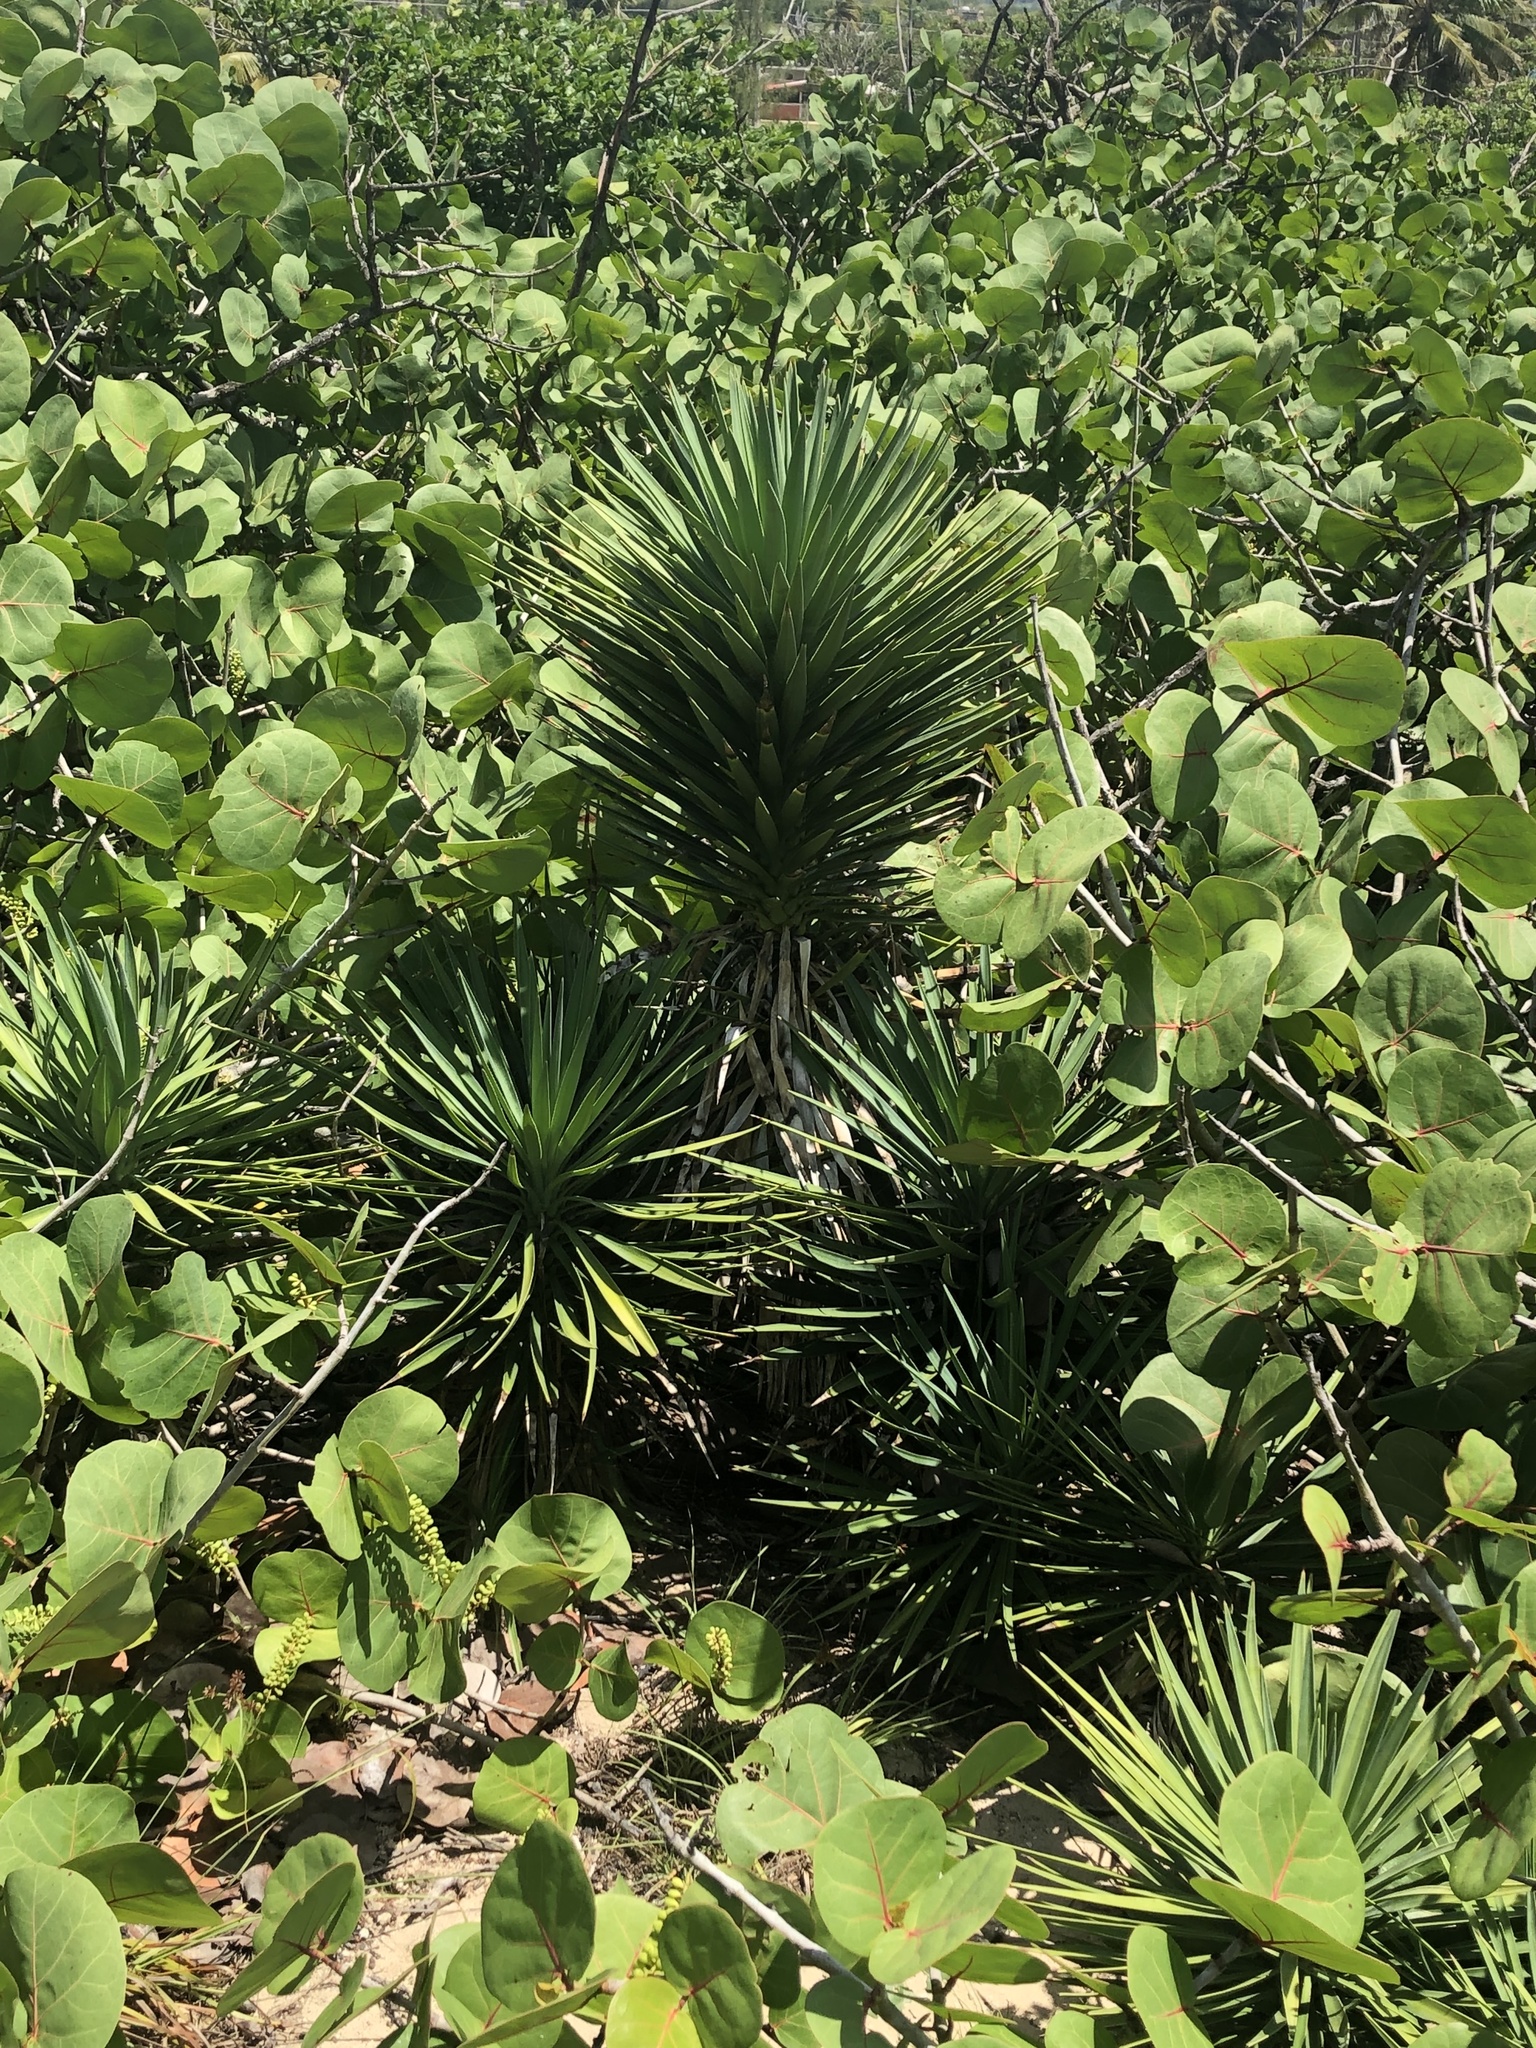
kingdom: Plantae
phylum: Tracheophyta
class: Liliopsida
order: Asparagales
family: Asparagaceae
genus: Yucca
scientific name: Yucca aloifolia
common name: Aloe yucca
